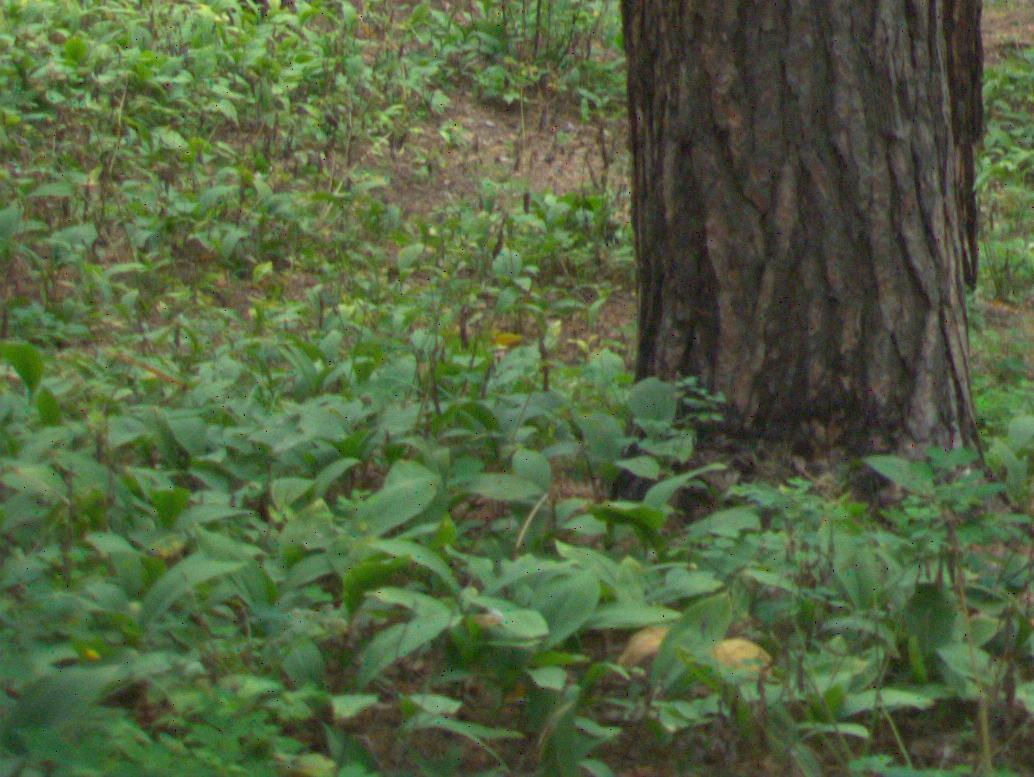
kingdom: Plantae
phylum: Tracheophyta
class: Liliopsida
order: Asparagales
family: Asparagaceae
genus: Convallaria
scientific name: Convallaria majalis
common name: Lily-of-the-valley
